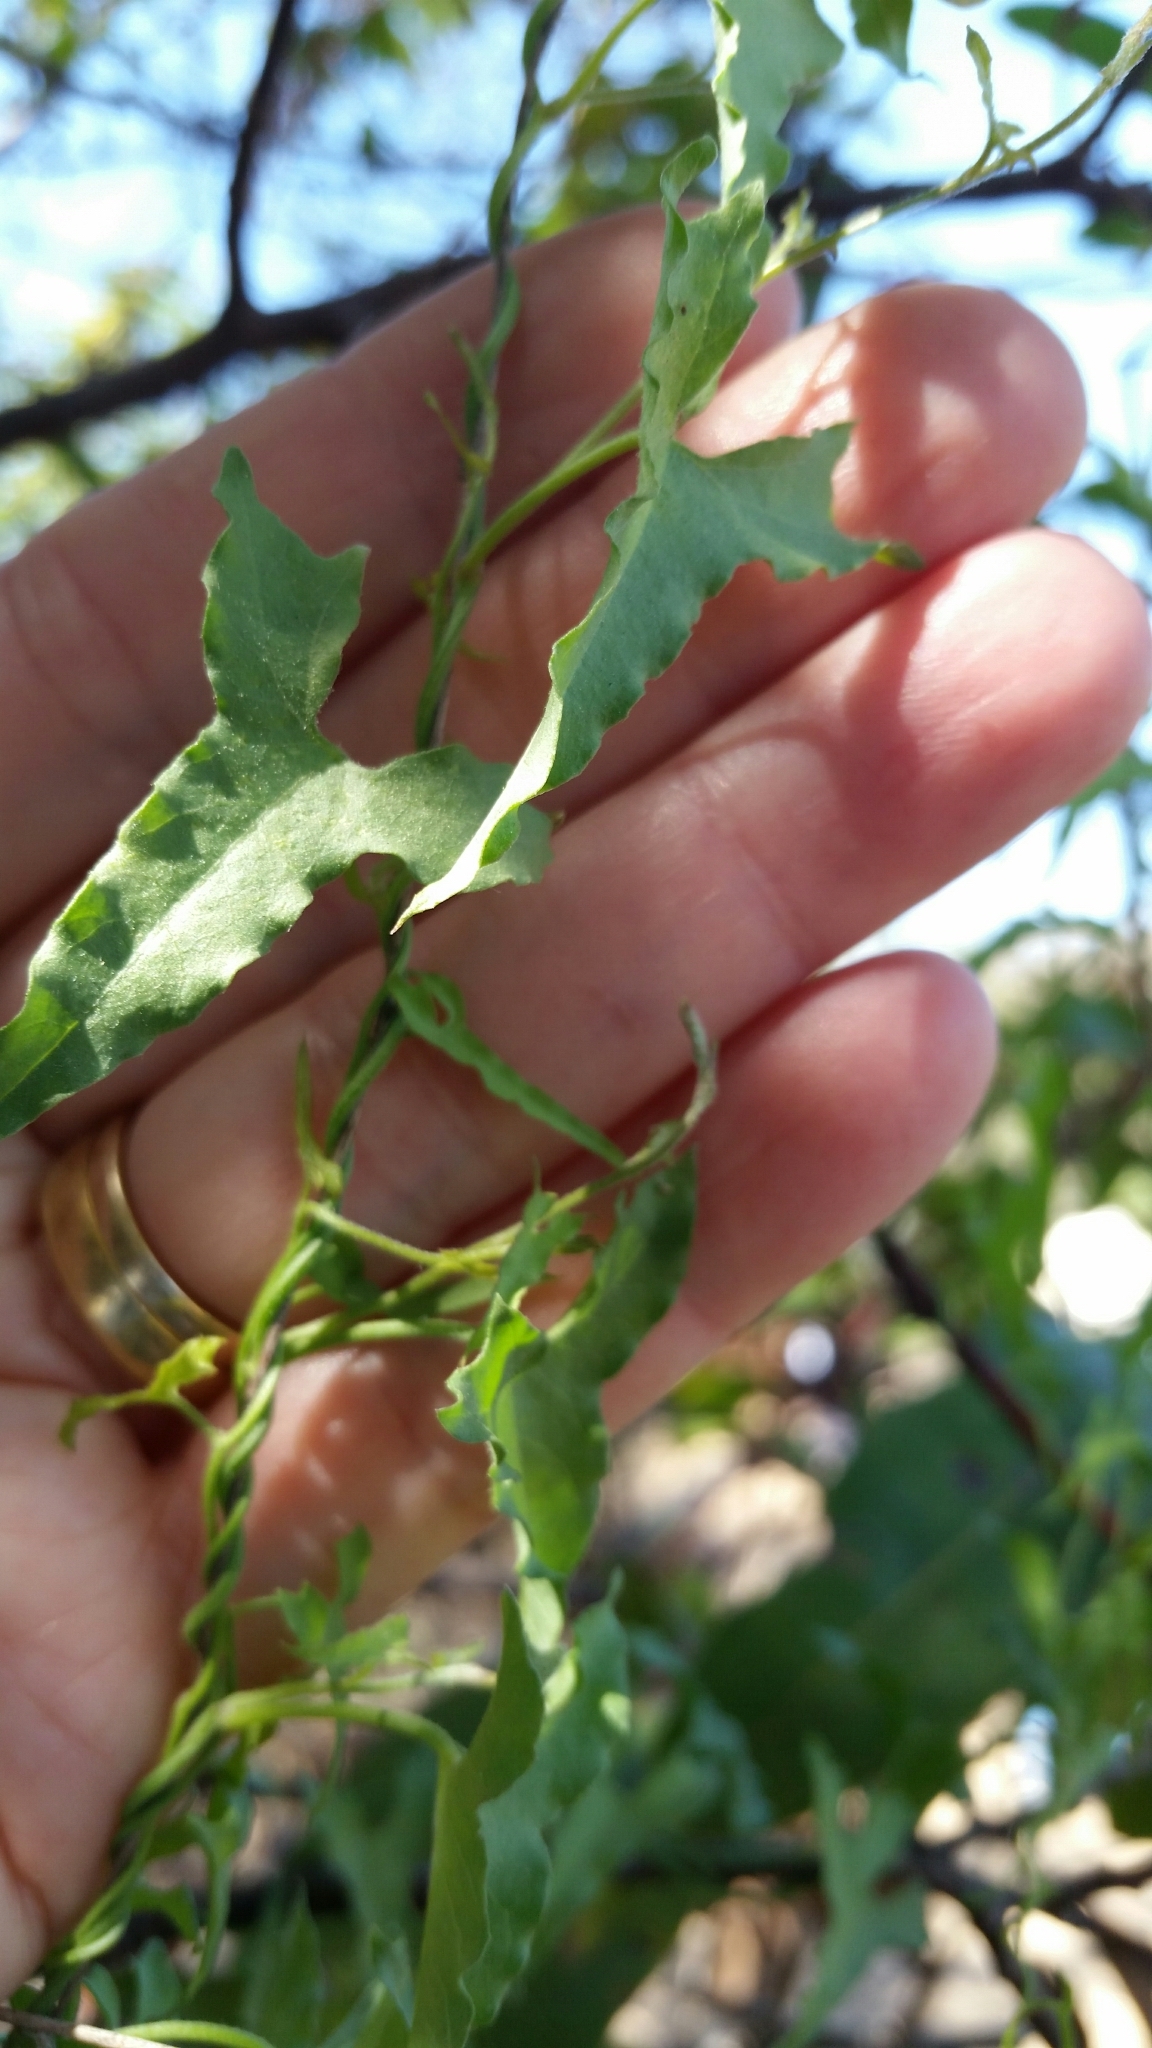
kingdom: Plantae
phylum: Tracheophyta
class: Magnoliopsida
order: Solanales
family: Convolvulaceae
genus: Calystegia
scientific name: Calystegia macrostegia
